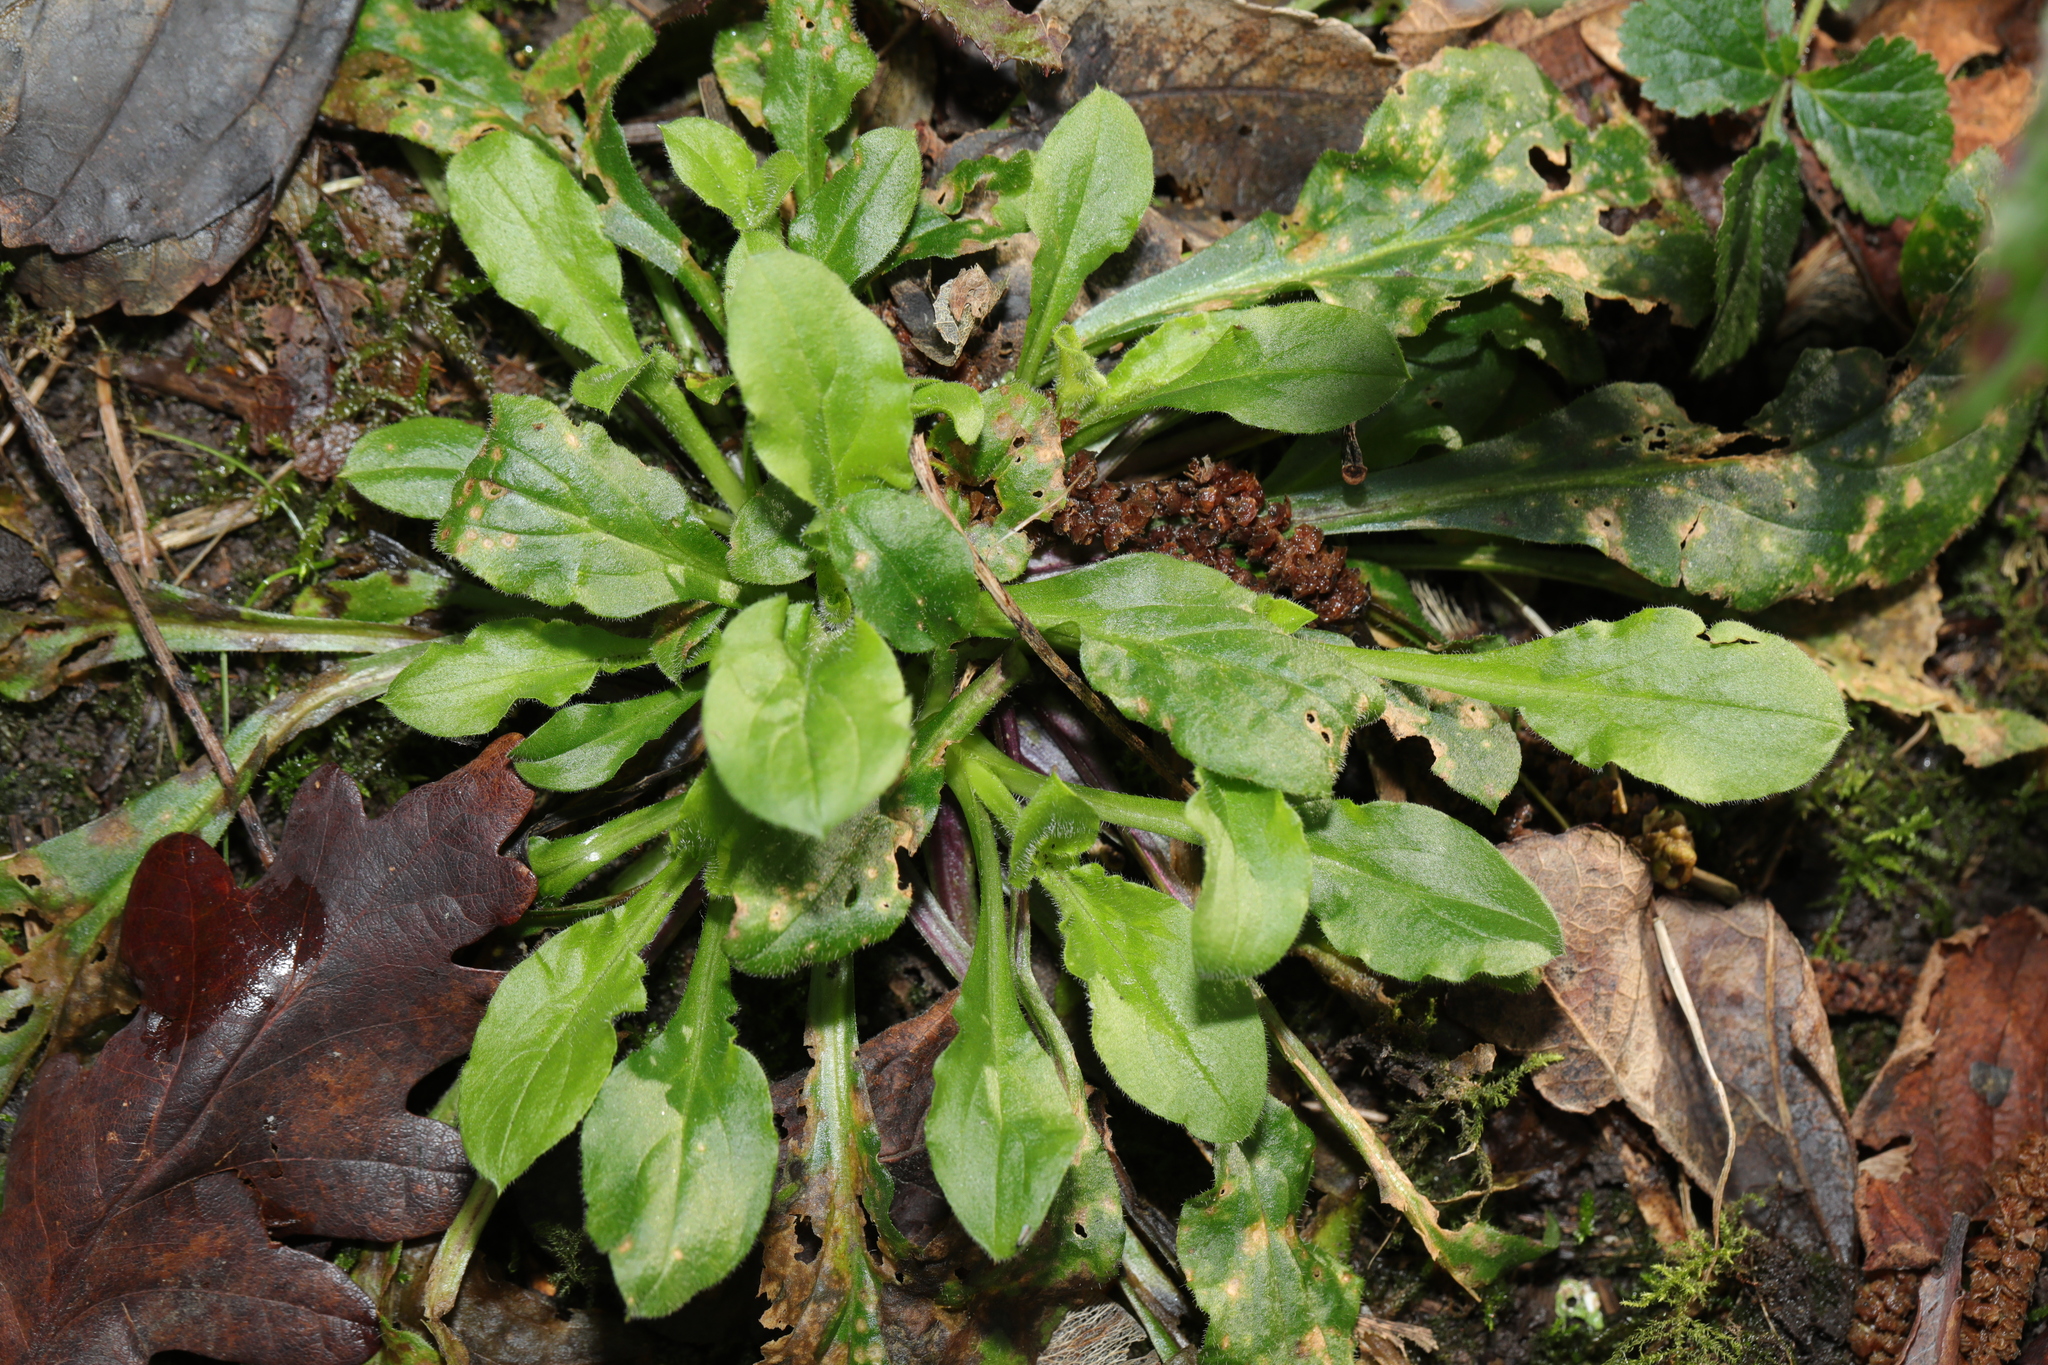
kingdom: Plantae
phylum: Tracheophyta
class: Magnoliopsida
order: Caryophyllales
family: Caryophyllaceae
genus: Silene
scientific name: Silene dioica
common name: Red campion
